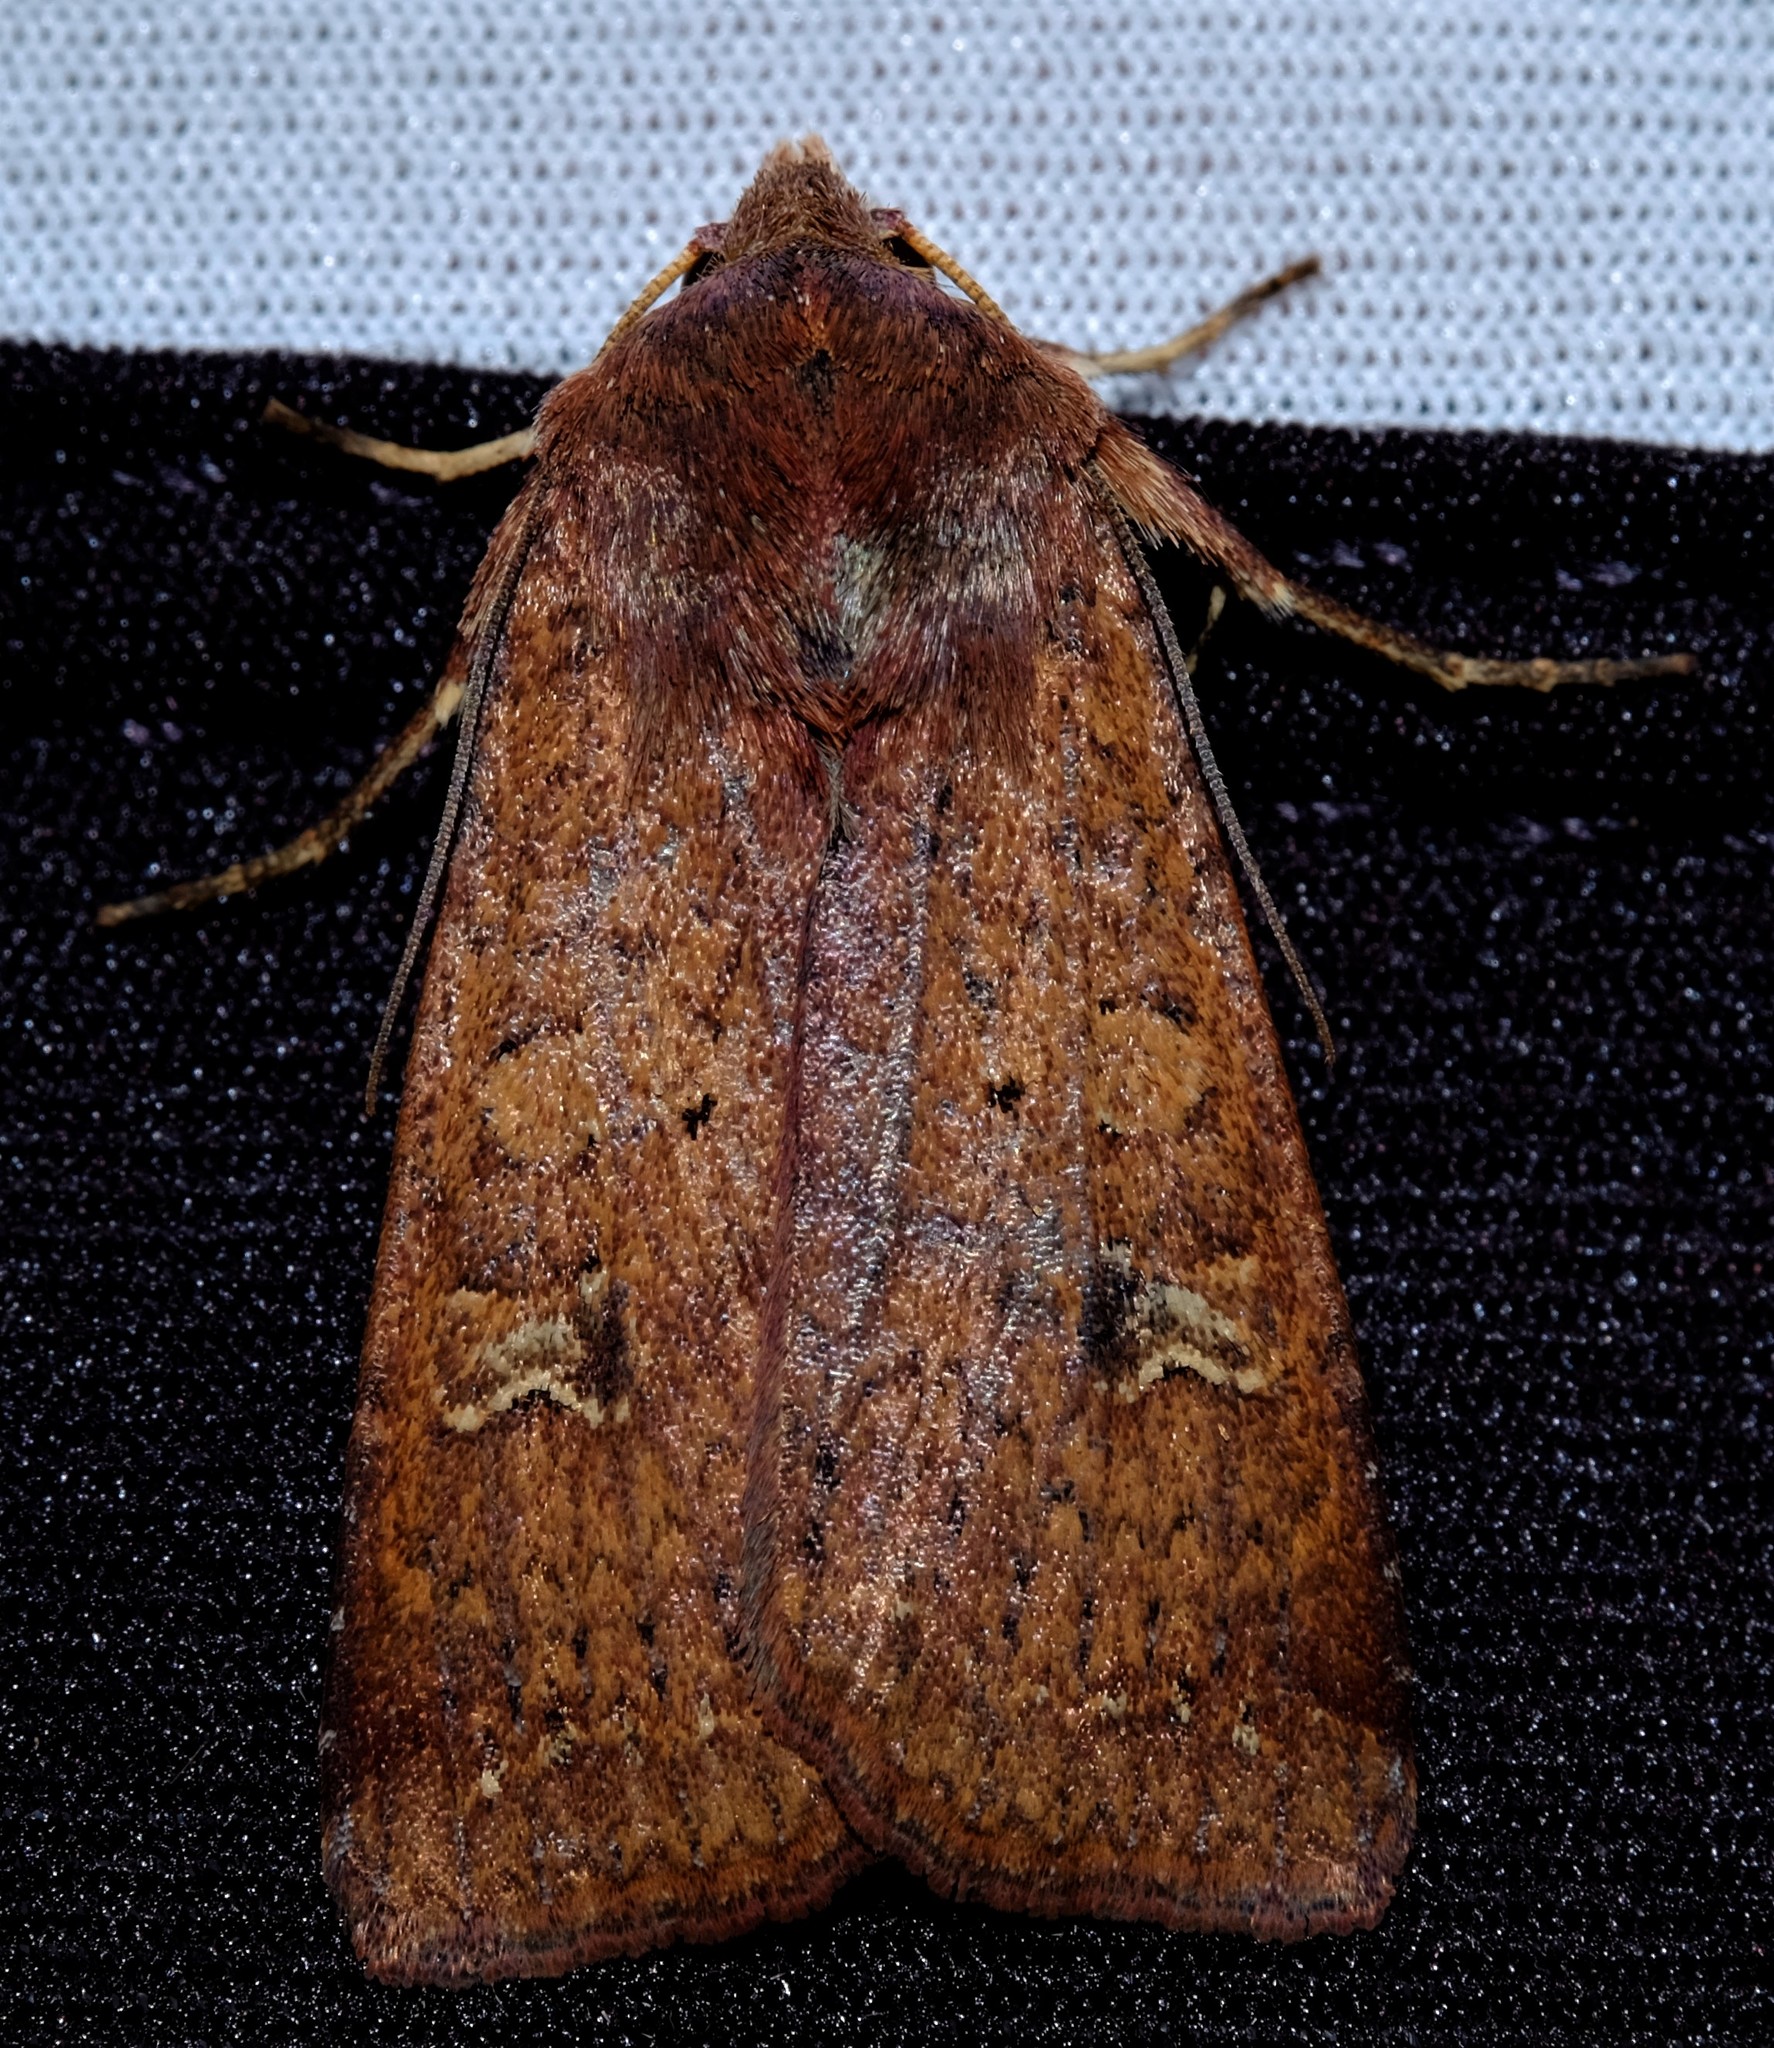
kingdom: Animalia
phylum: Arthropoda
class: Insecta
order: Lepidoptera
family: Noctuidae
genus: Diarsia
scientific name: Diarsia intermixta
